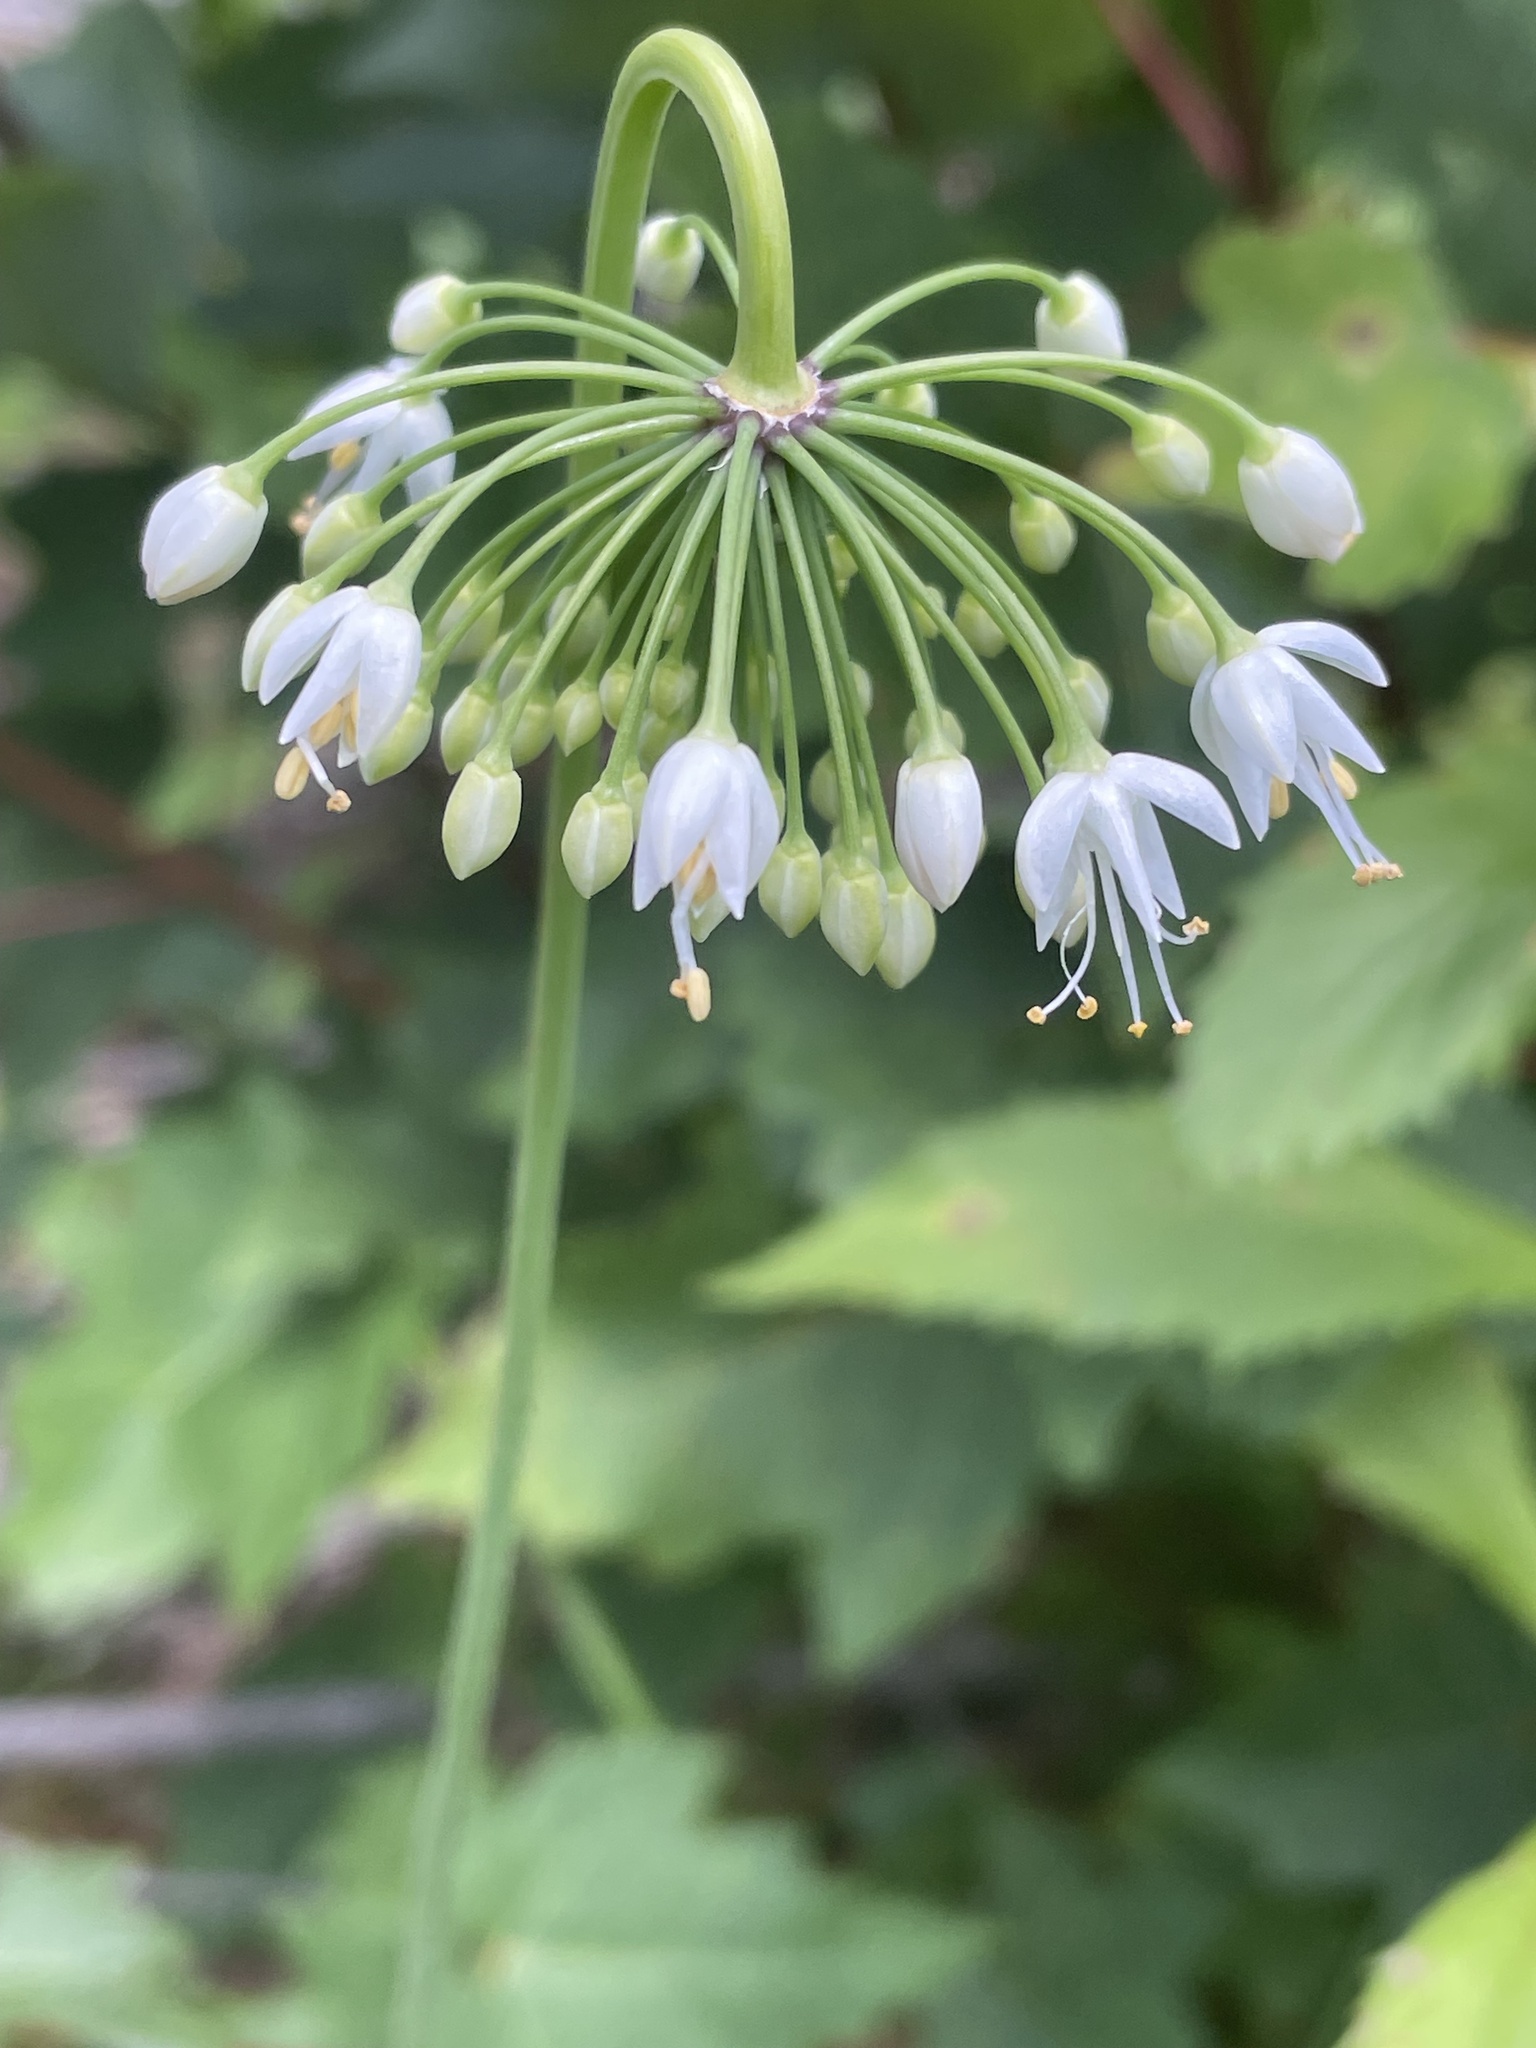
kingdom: Plantae
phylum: Tracheophyta
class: Liliopsida
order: Asparagales
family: Amaryllidaceae
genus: Allium
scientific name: Allium cernuum
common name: Nodding onion
